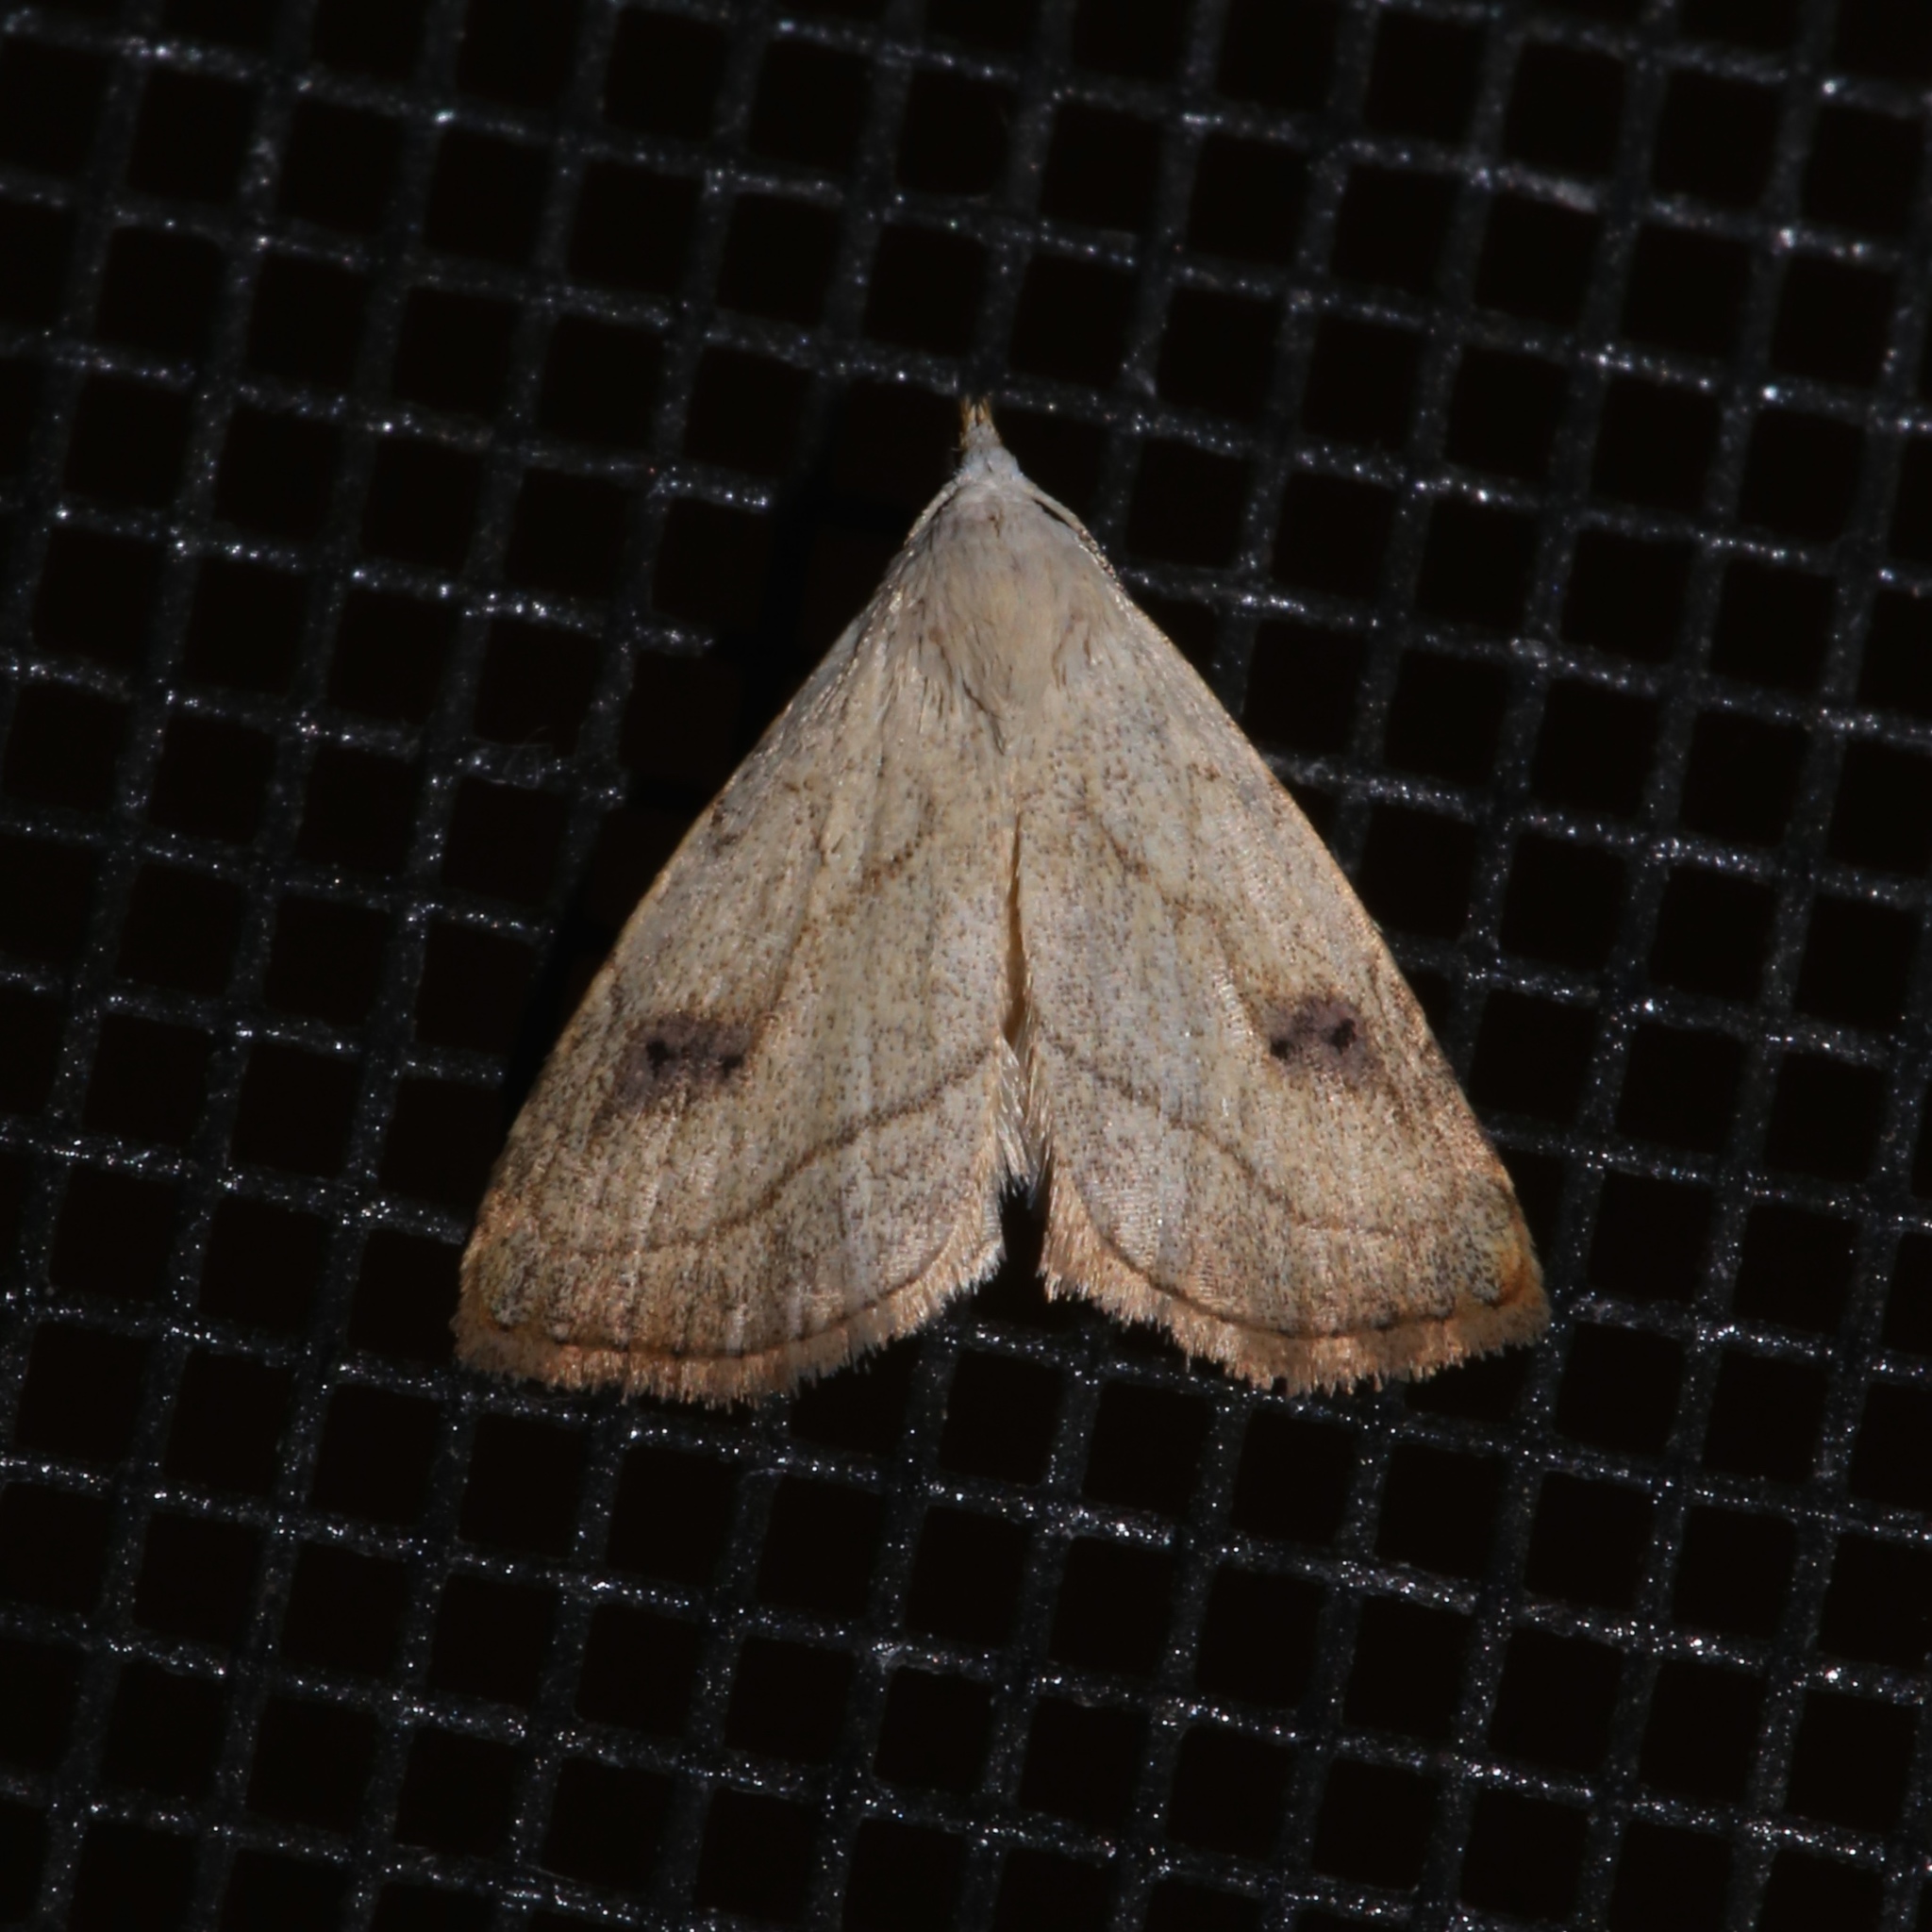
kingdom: Animalia
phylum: Arthropoda
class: Insecta
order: Lepidoptera
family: Erebidae
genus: Rivula
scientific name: Rivula propinqualis
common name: Spotted grass moth
